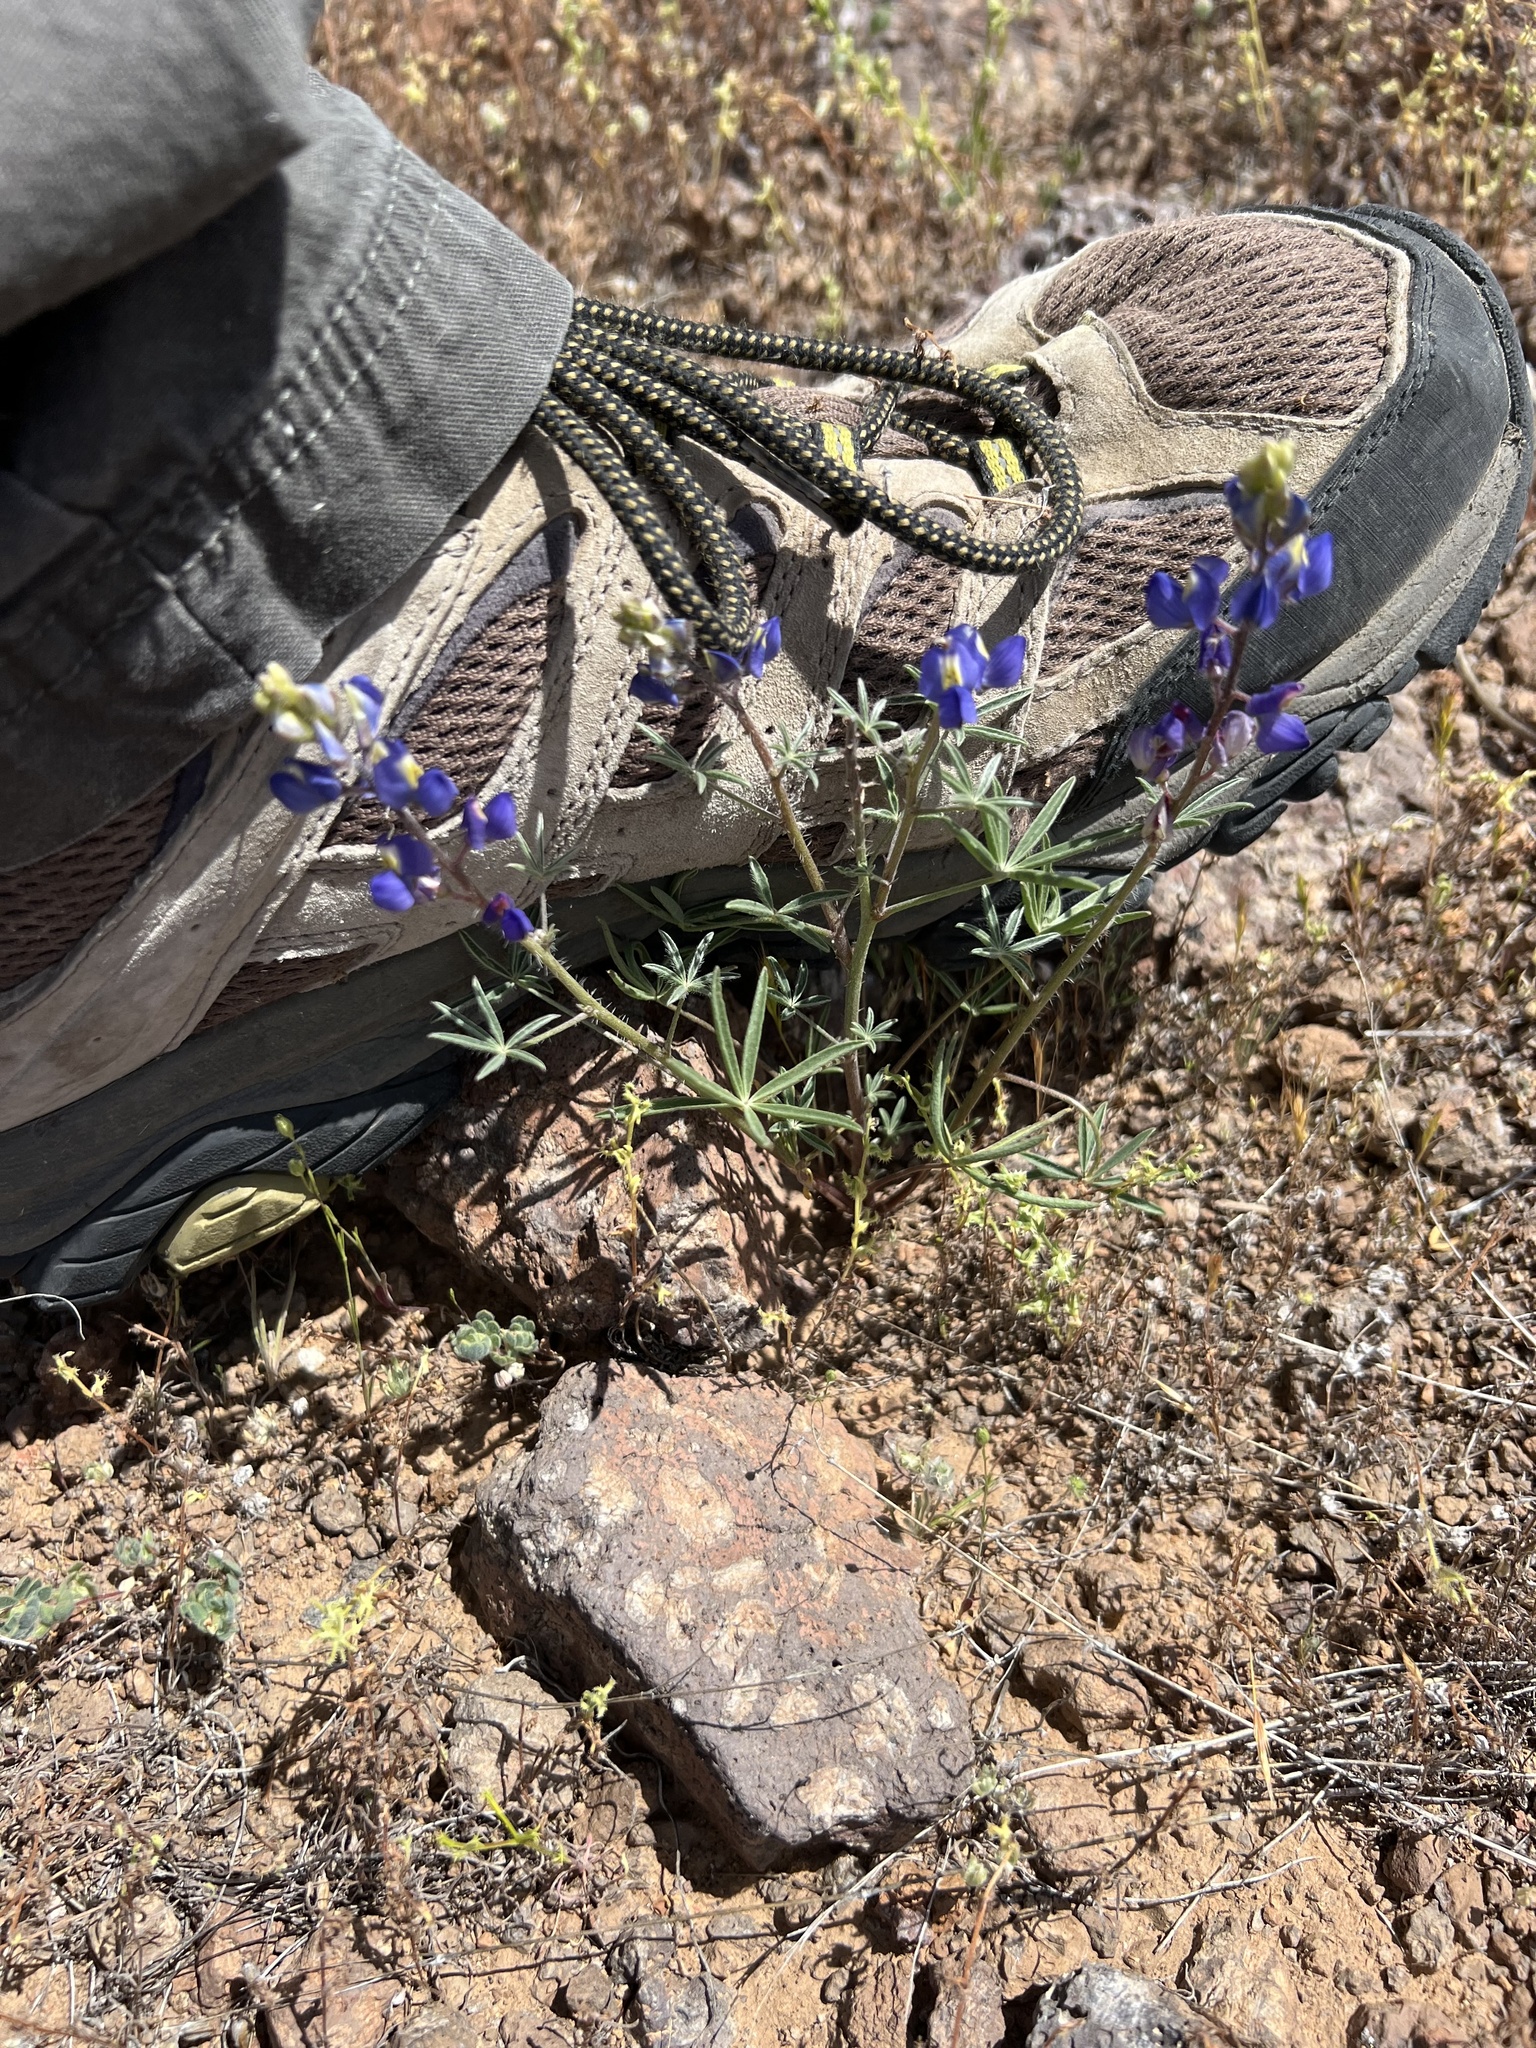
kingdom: Plantae
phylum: Tracheophyta
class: Magnoliopsida
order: Fabales
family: Fabaceae
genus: Lupinus
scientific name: Lupinus sparsiflorus
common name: Coulter's lupine
